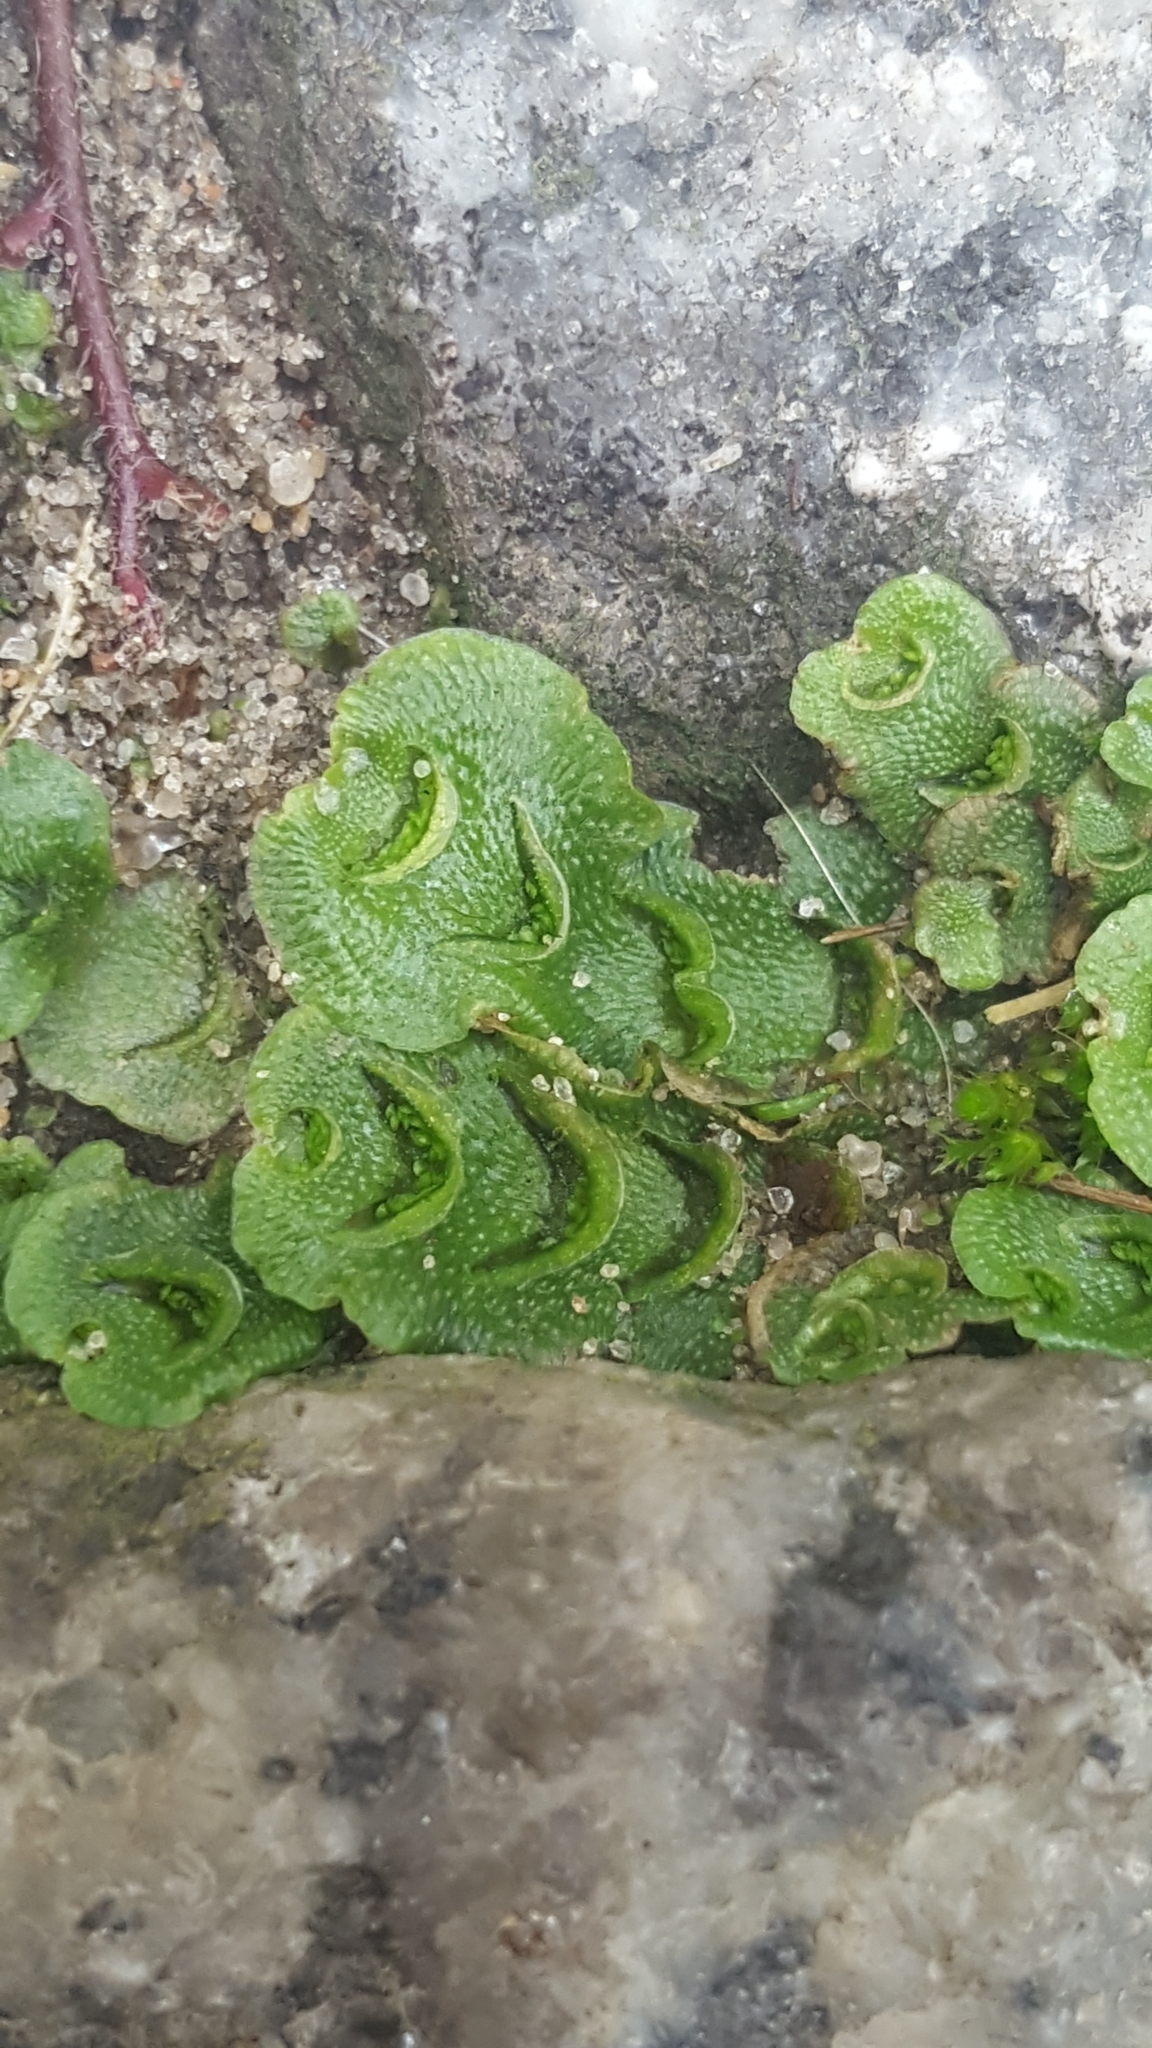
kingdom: Plantae
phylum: Marchantiophyta
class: Marchantiopsida
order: Lunulariales
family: Lunulariaceae
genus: Lunularia
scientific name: Lunularia cruciata
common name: Crescent-cup liverwort
